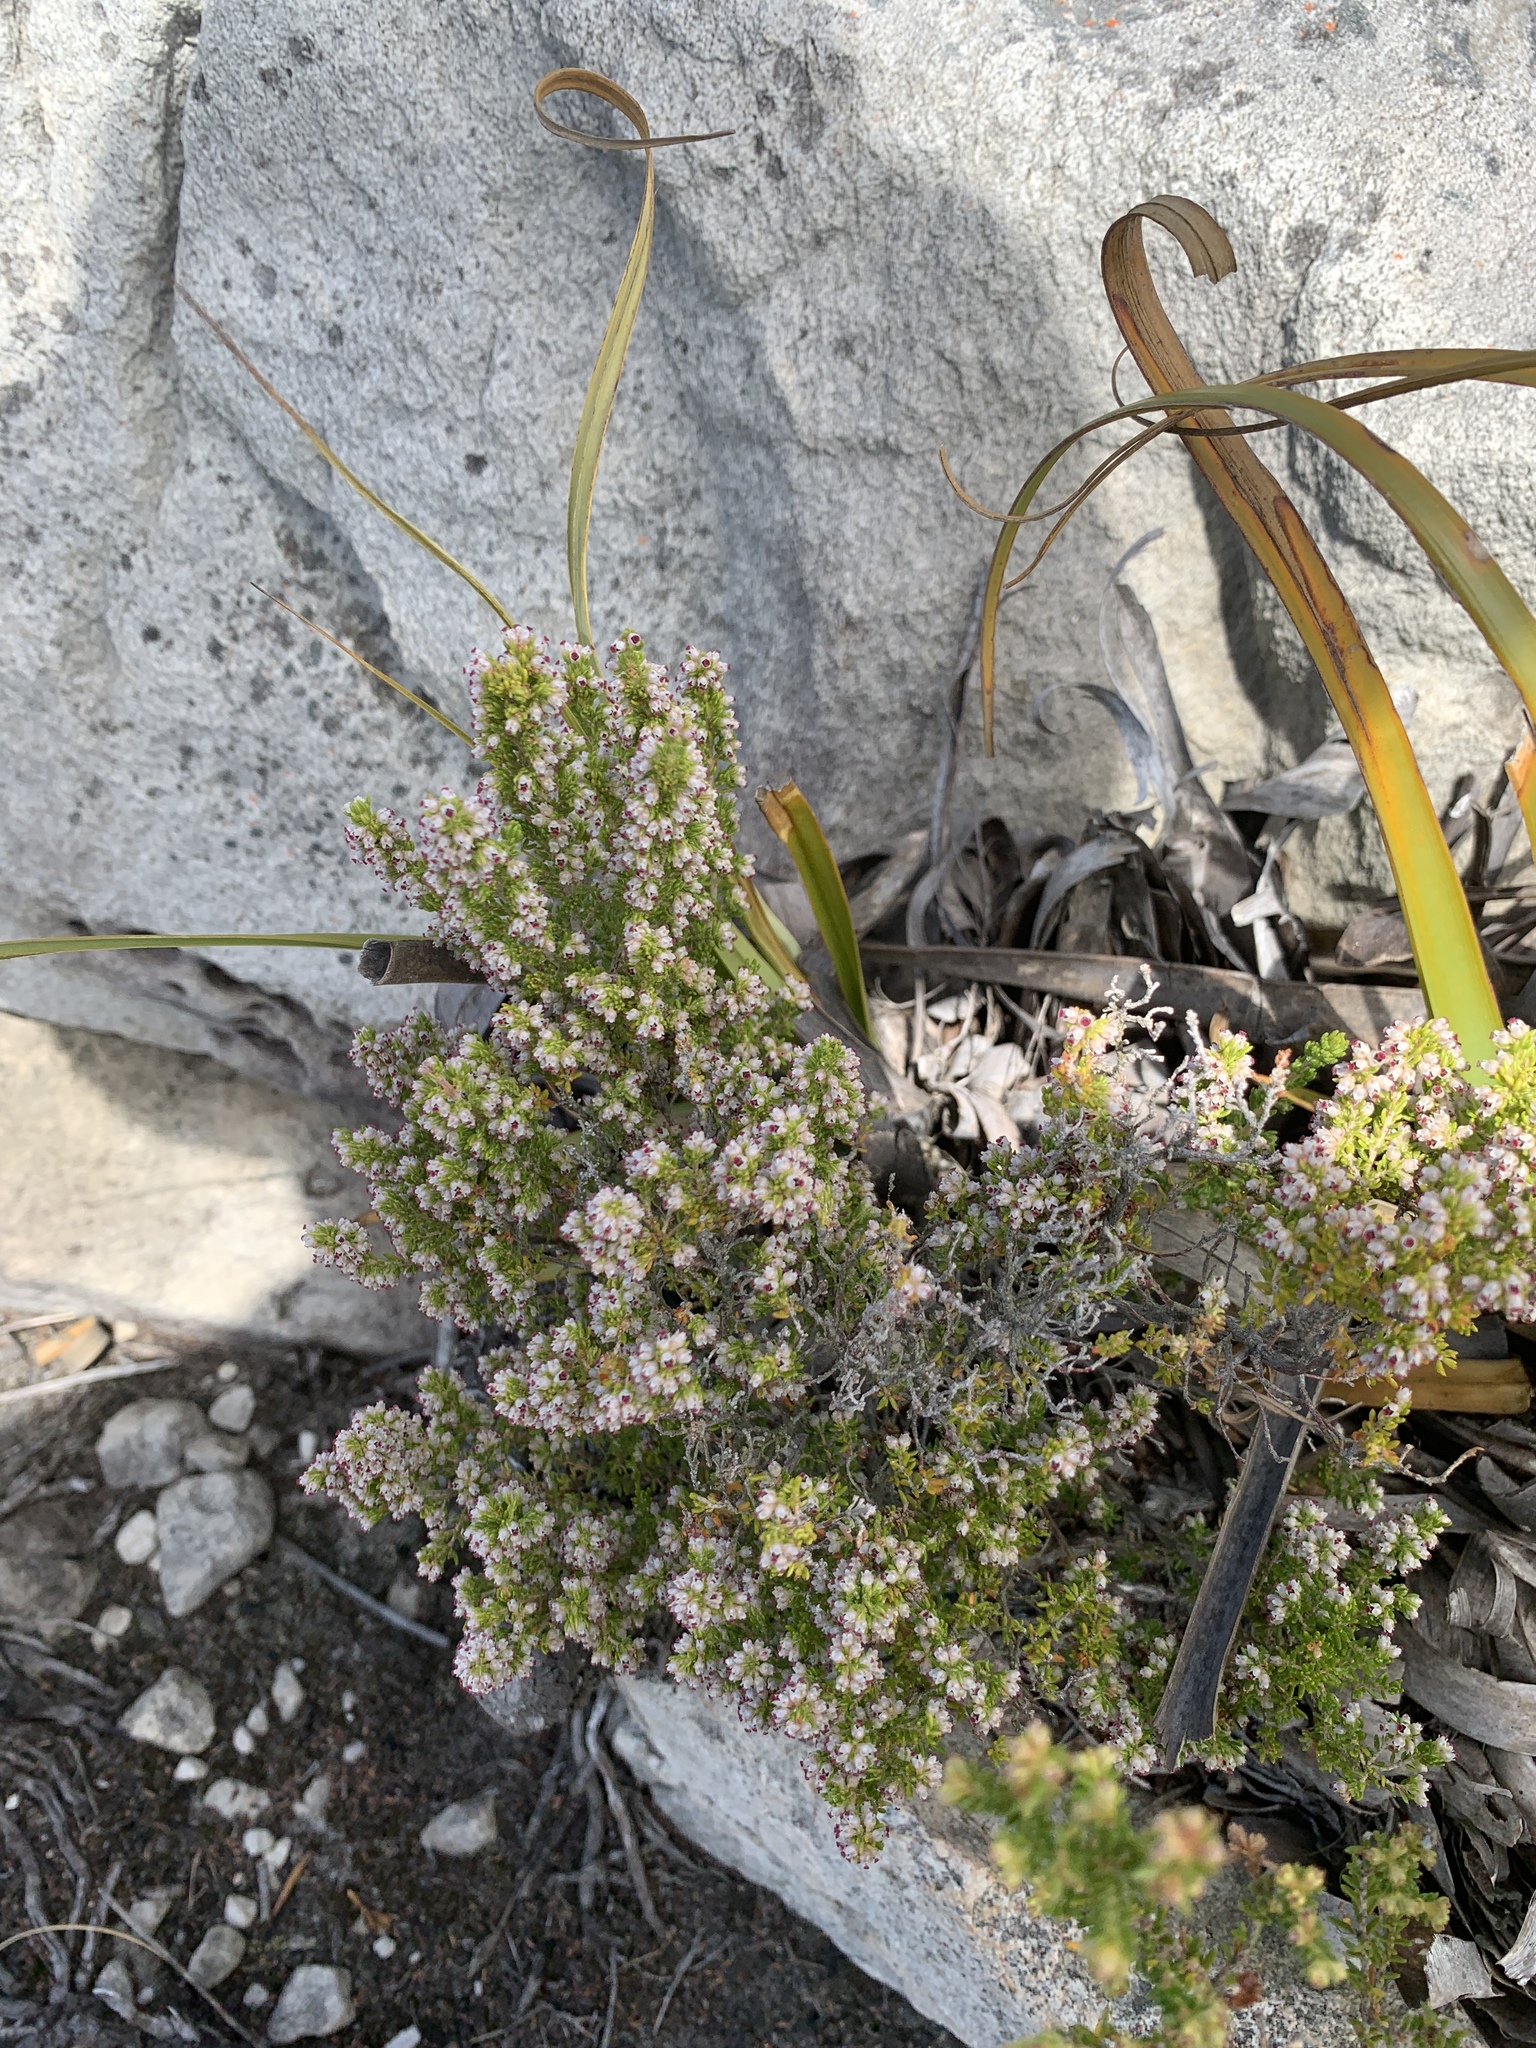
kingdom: Plantae
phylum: Tracheophyta
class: Magnoliopsida
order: Ericales
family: Ericaceae
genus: Erica
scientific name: Erica hispidula
